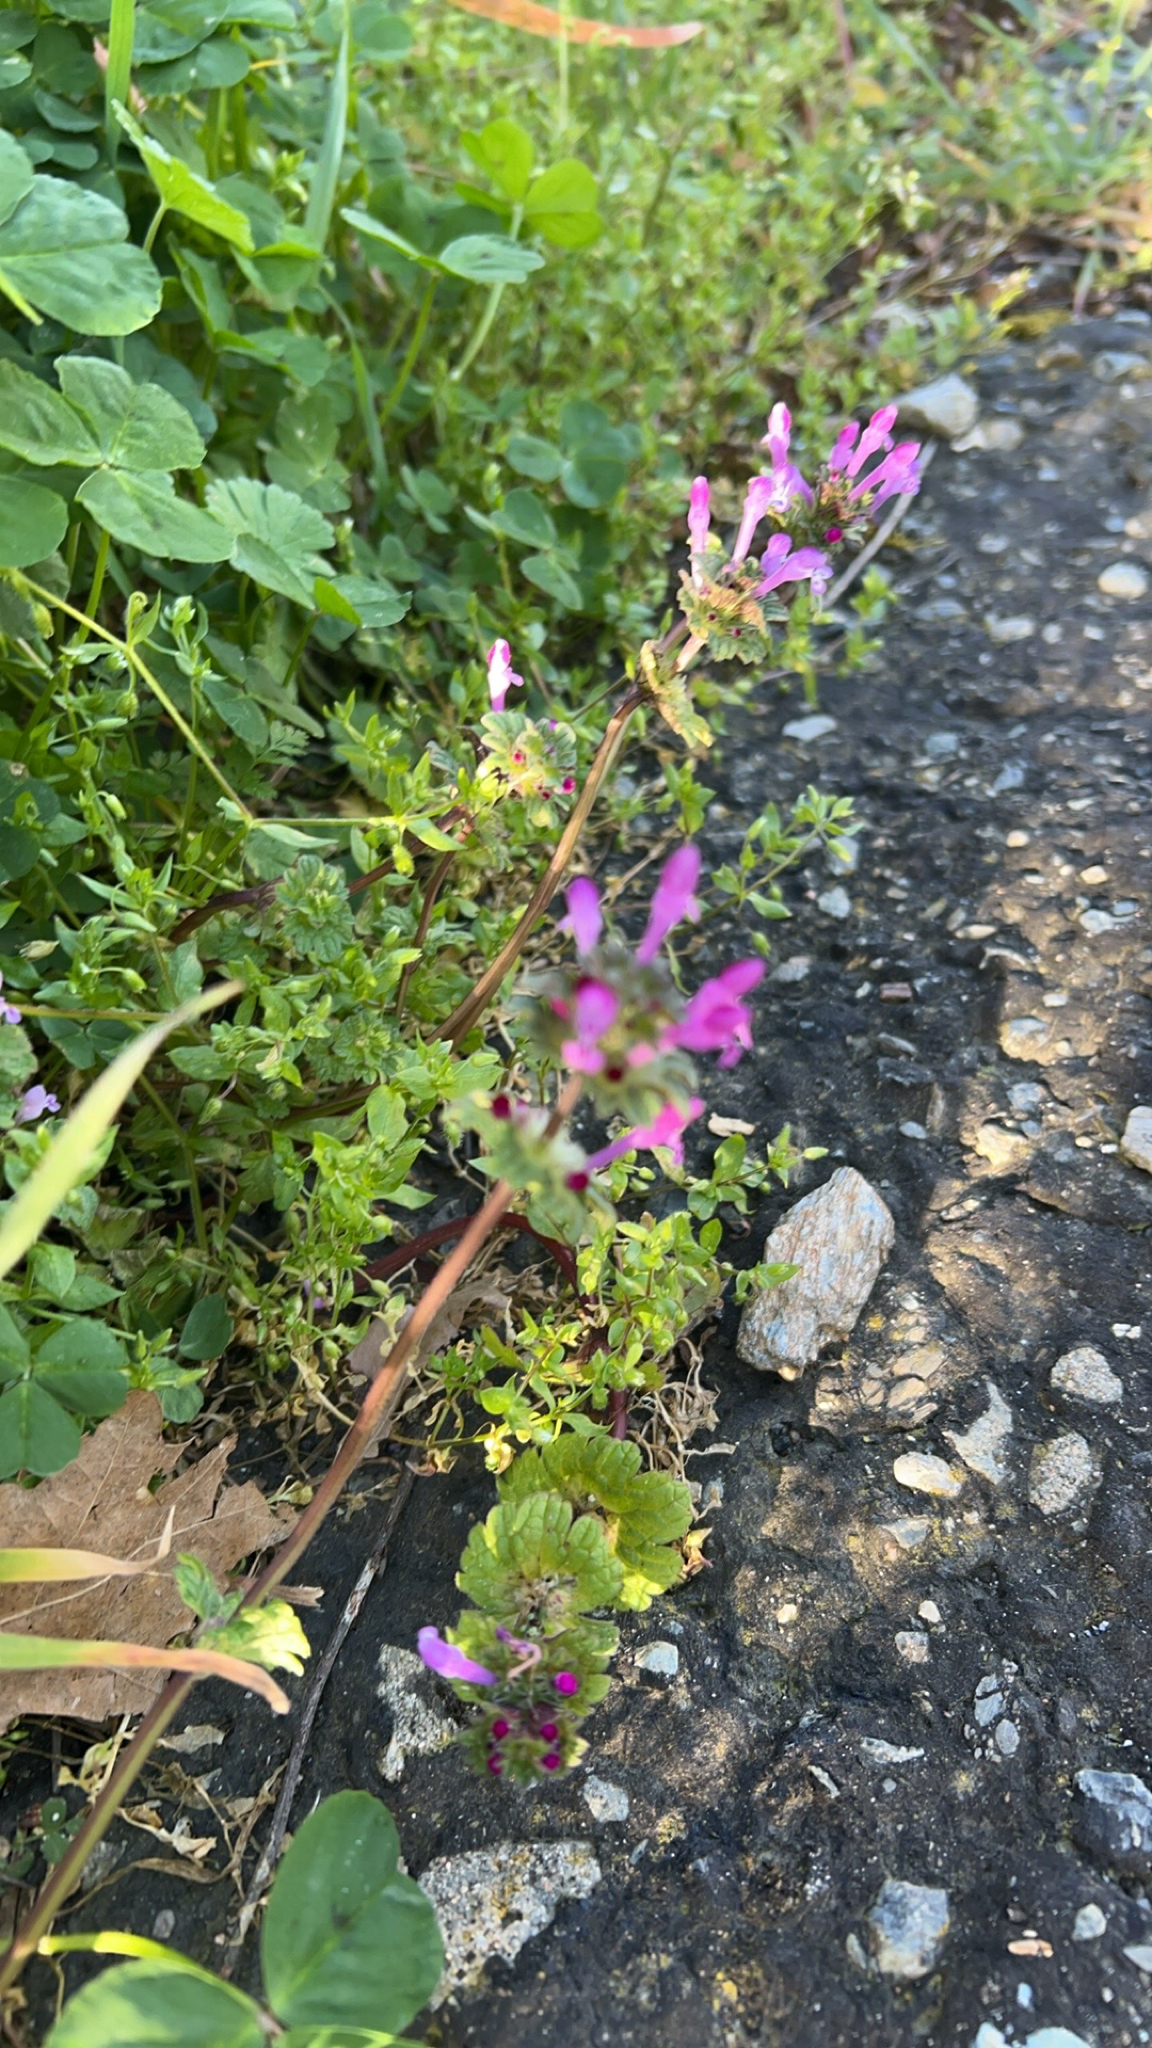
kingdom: Plantae
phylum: Tracheophyta
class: Magnoliopsida
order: Lamiales
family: Lamiaceae
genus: Lamium
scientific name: Lamium amplexicaule
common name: Henbit dead-nettle
